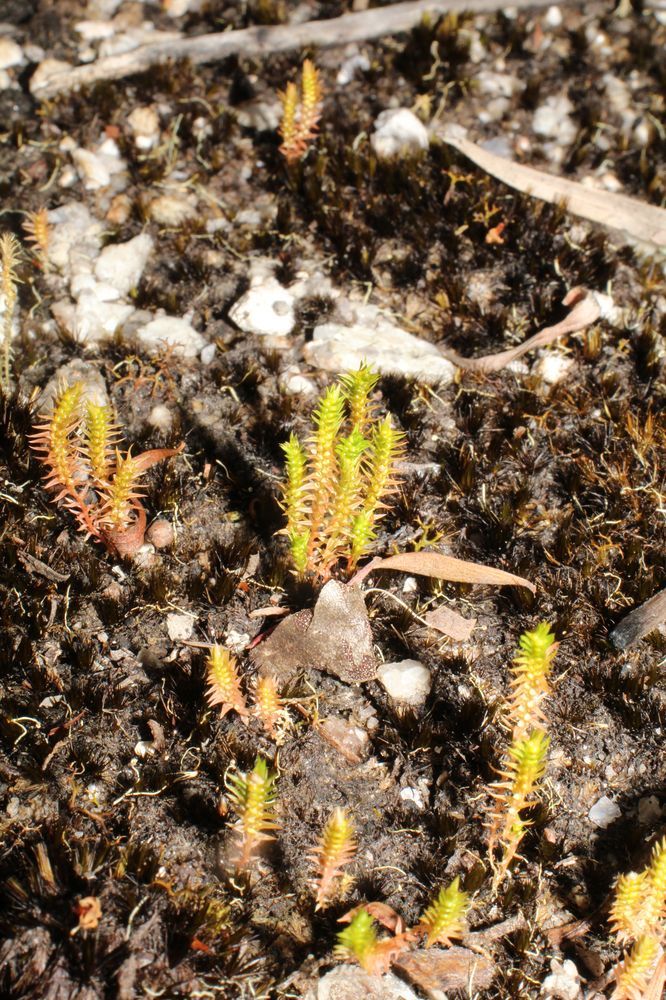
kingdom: Plantae
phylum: Tracheophyta
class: Lycopodiopsida
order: Selaginellales
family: Selaginellaceae
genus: Selaginella
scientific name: Selaginella gracillima
